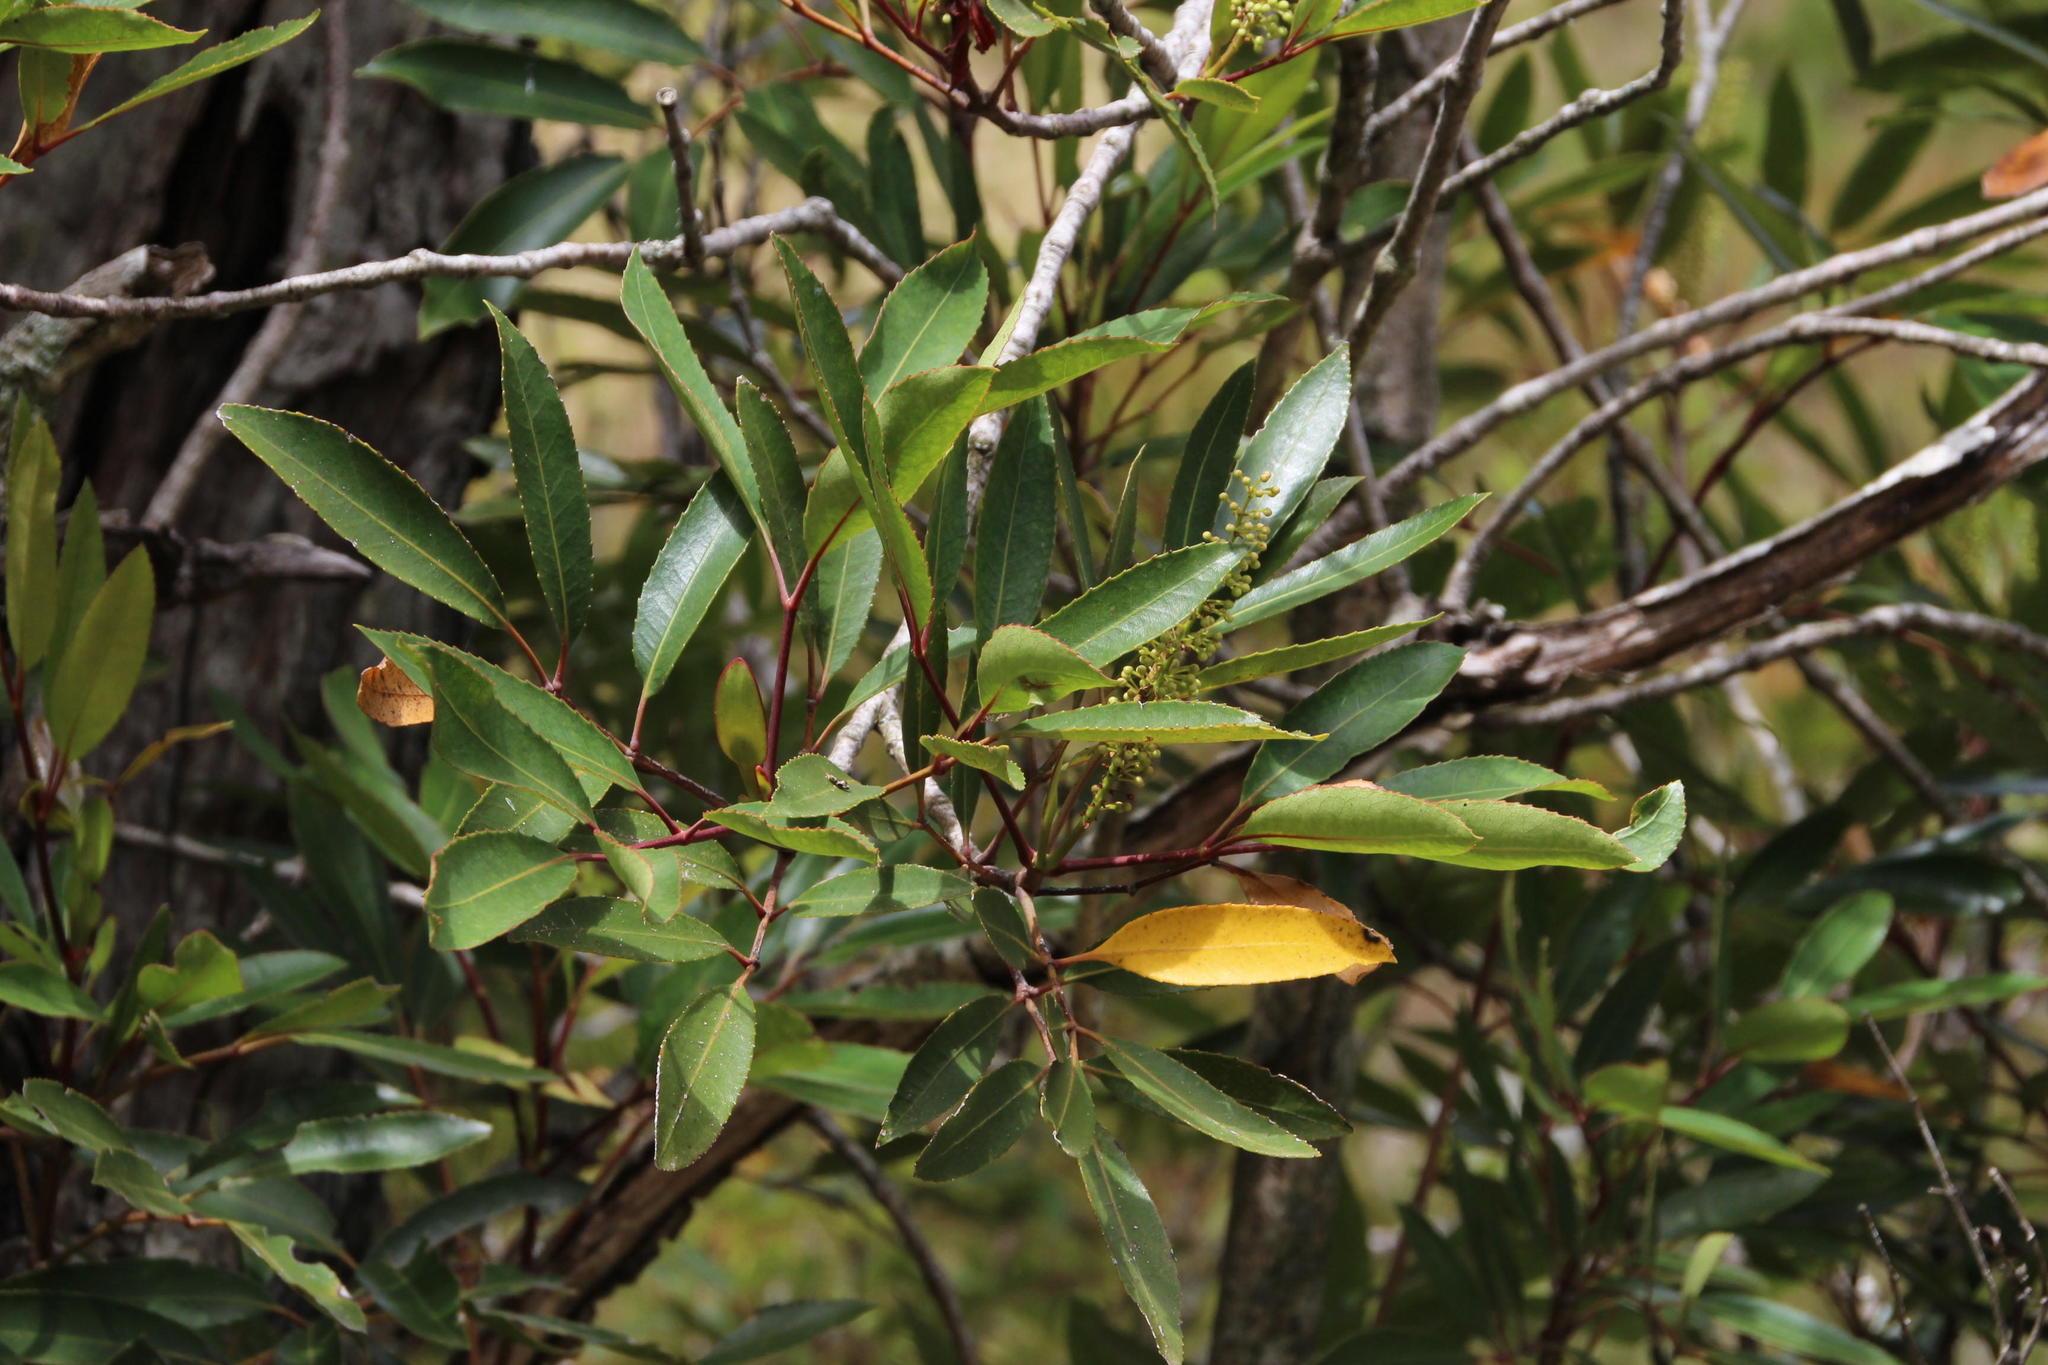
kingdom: Plantae
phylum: Tracheophyta
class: Magnoliopsida
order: Oxalidales
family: Cunoniaceae
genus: Cunonia
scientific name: Cunonia capensis
